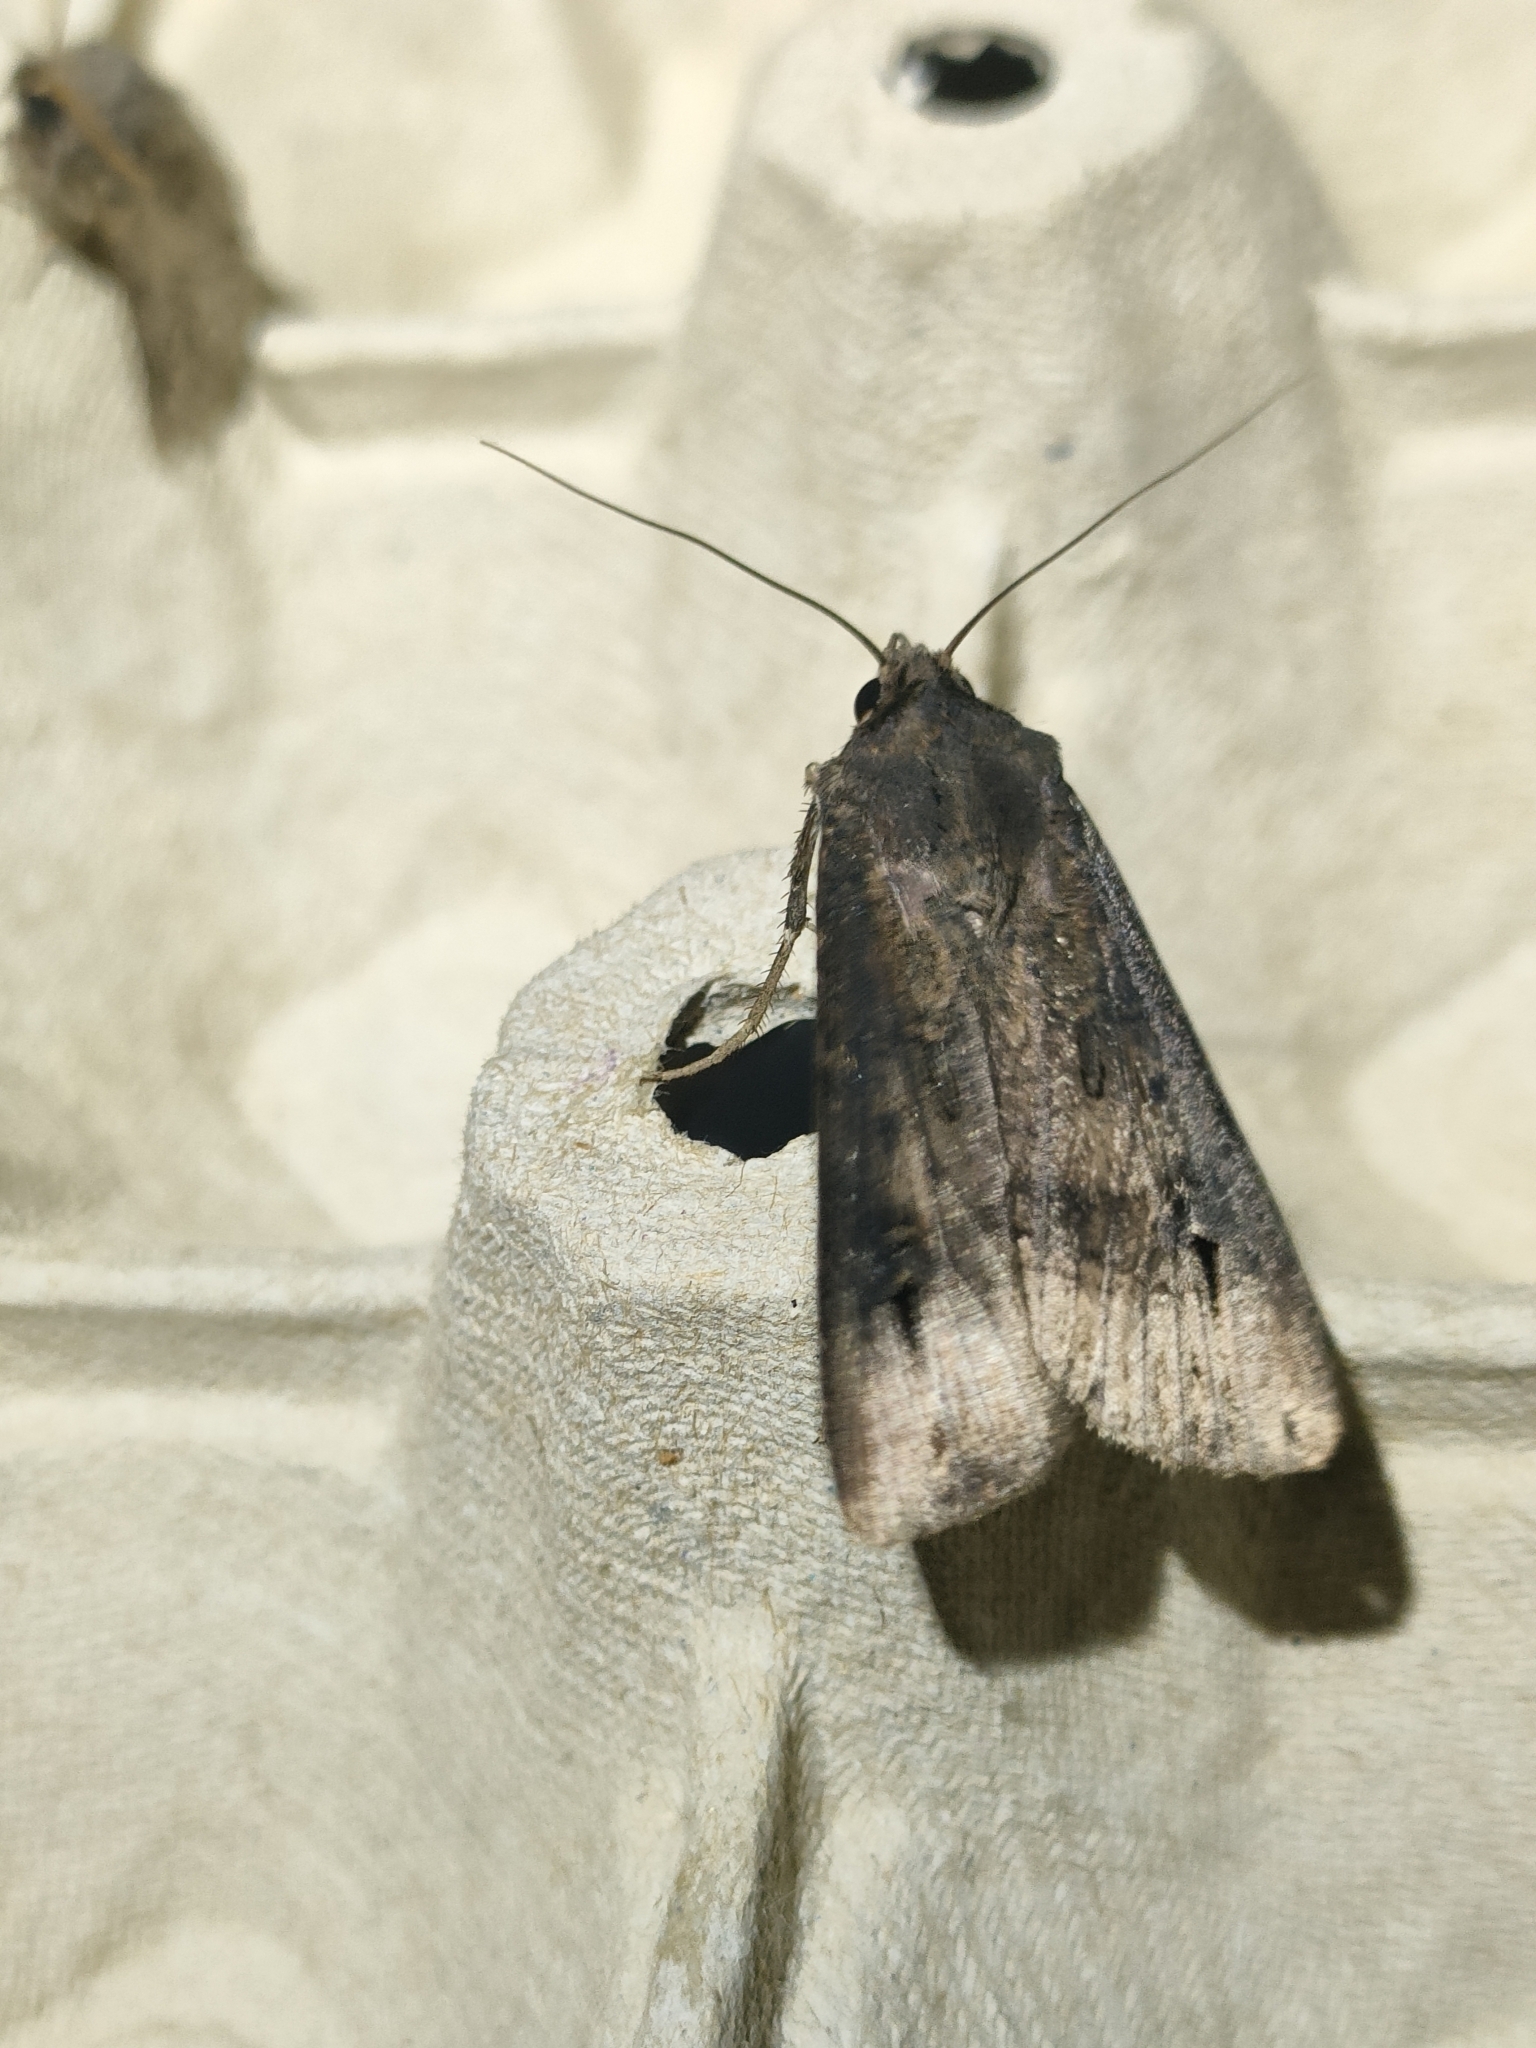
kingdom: Animalia
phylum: Arthropoda
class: Insecta
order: Lepidoptera
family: Noctuidae
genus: Agrotis
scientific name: Agrotis ipsilon
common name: Dark sword-grass
